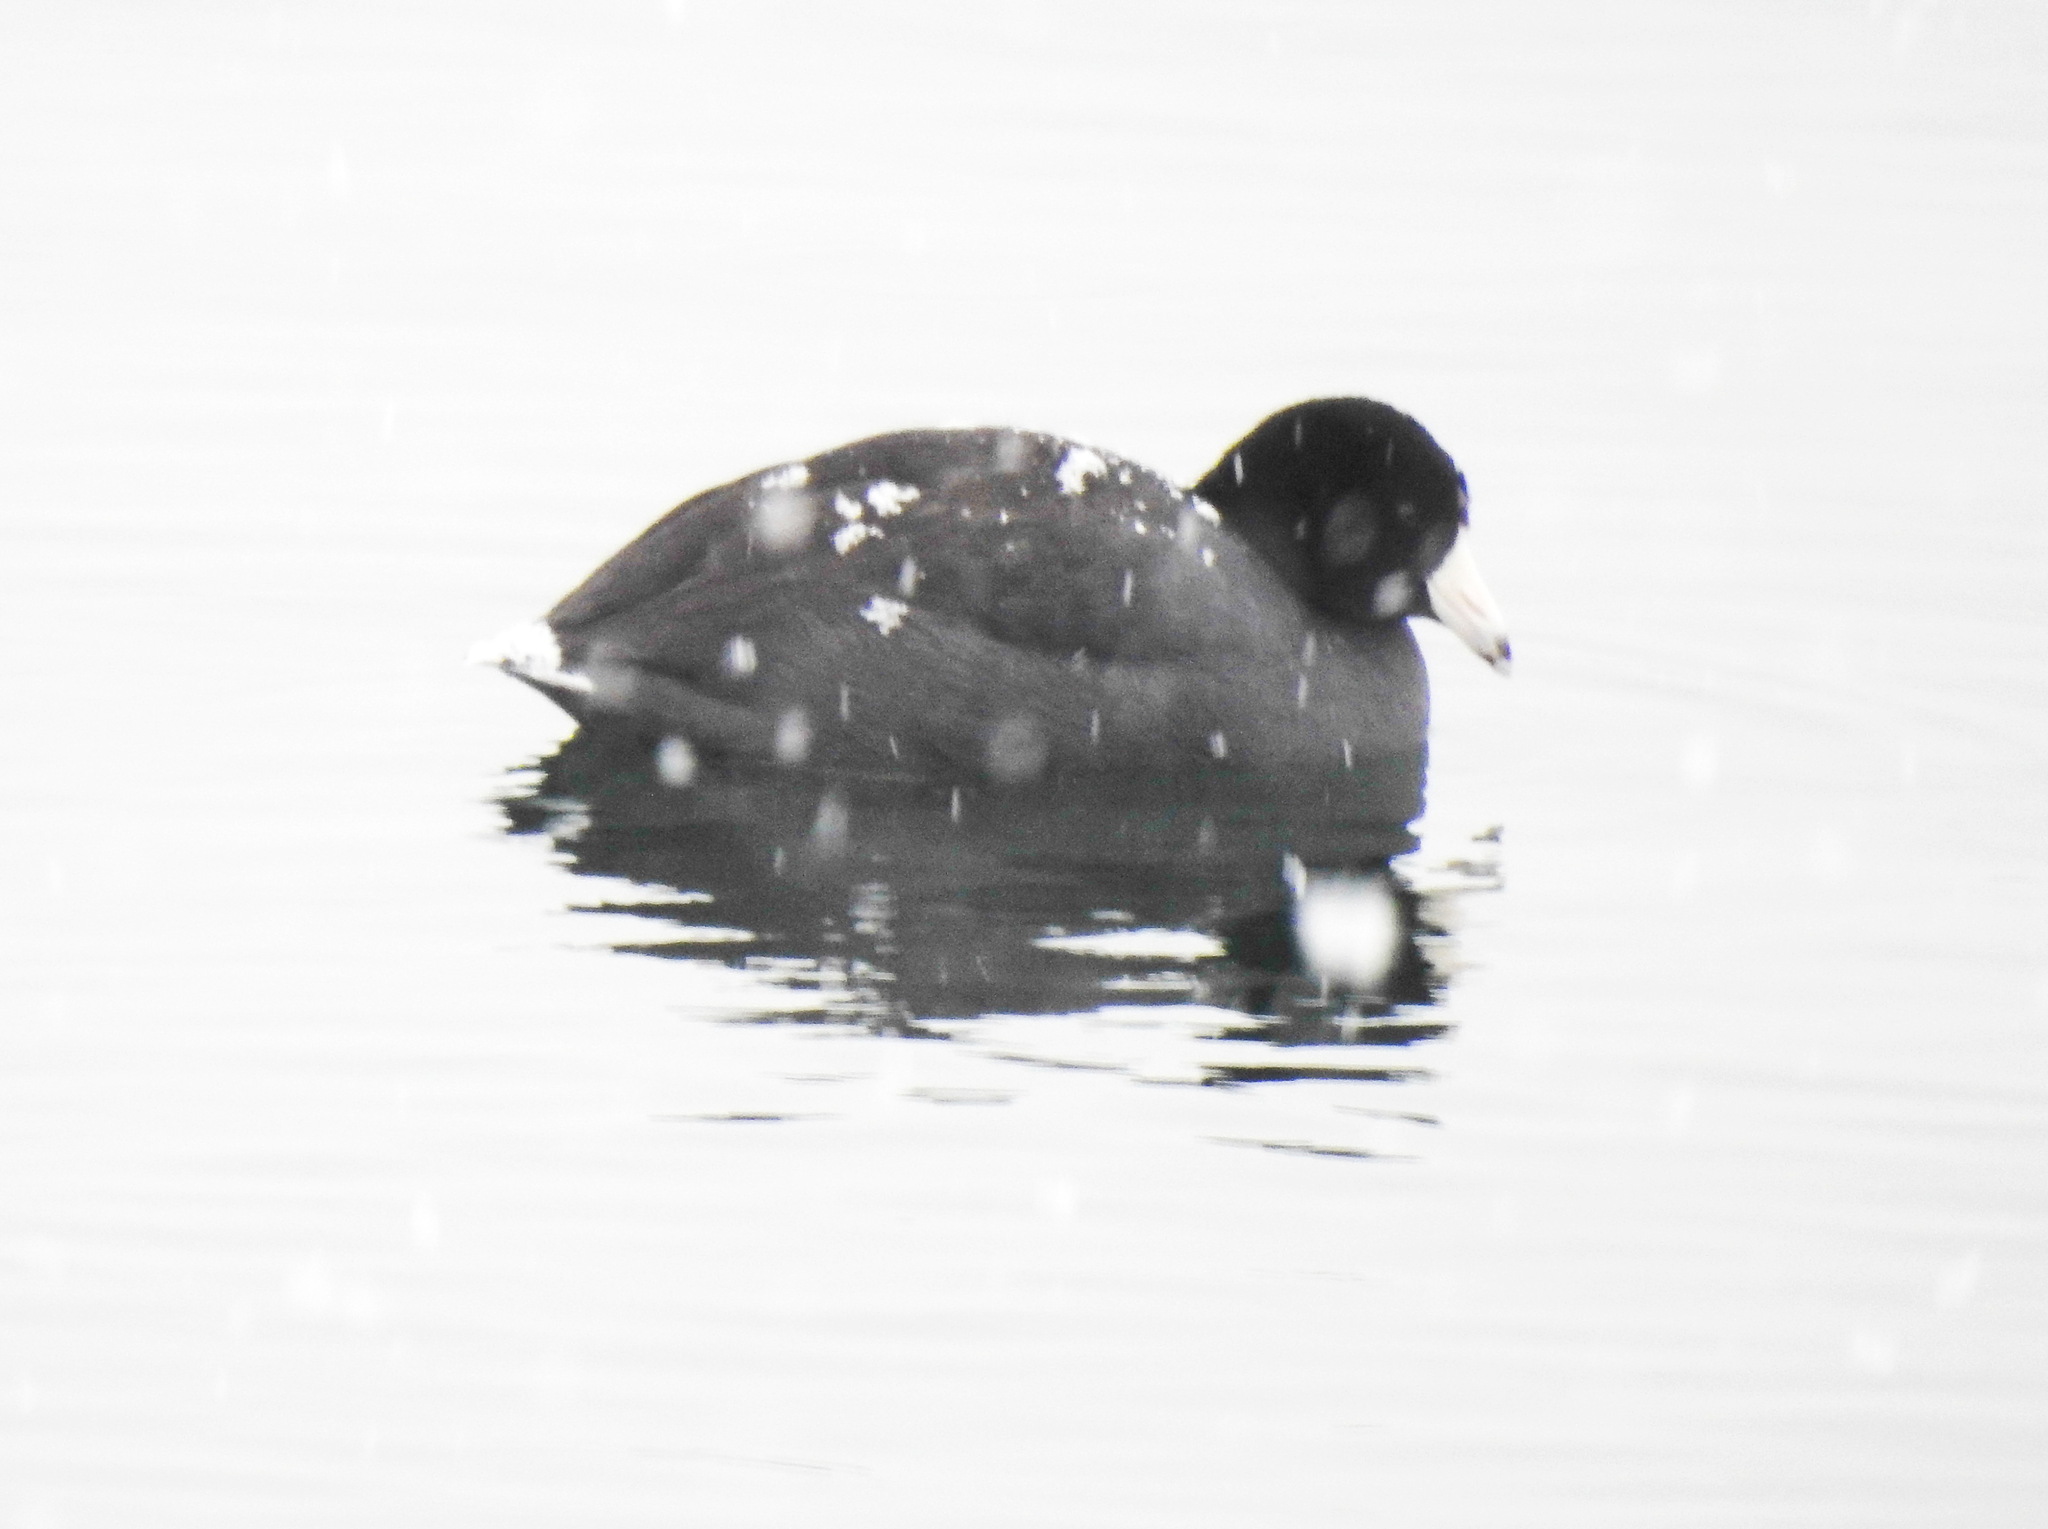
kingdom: Animalia
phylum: Chordata
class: Aves
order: Gruiformes
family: Rallidae
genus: Fulica
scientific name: Fulica americana
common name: American coot
